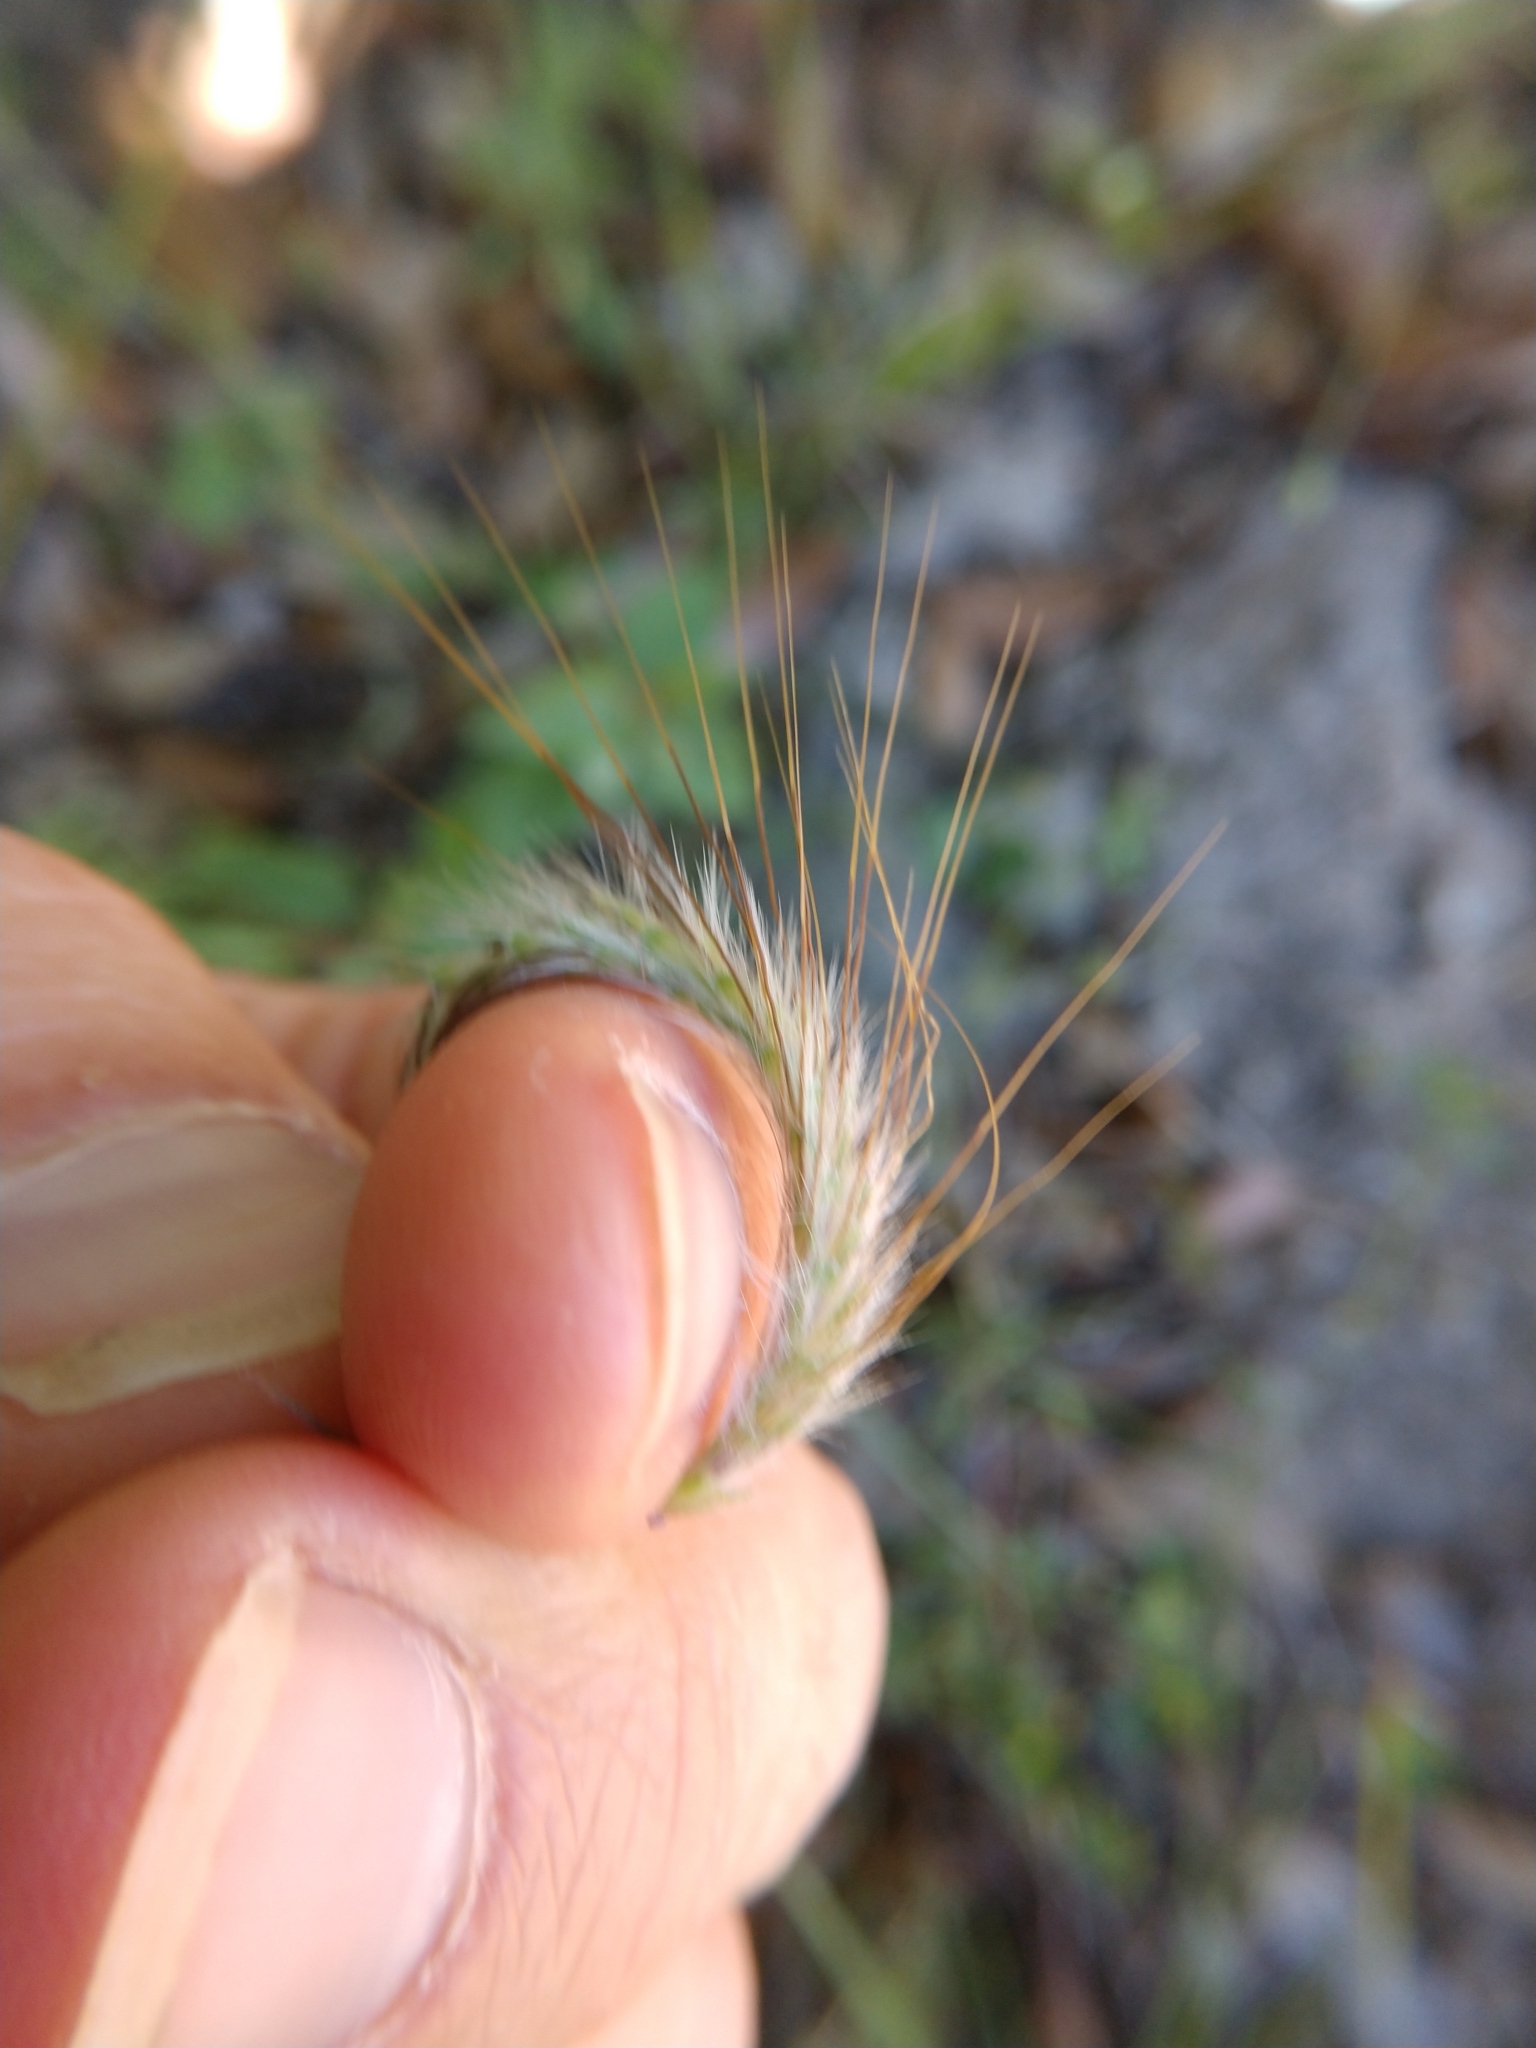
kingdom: Plantae
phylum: Tracheophyta
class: Liliopsida
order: Poales
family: Poaceae
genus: Dichanthium
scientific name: Dichanthium sericeum
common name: Silky bluestem
